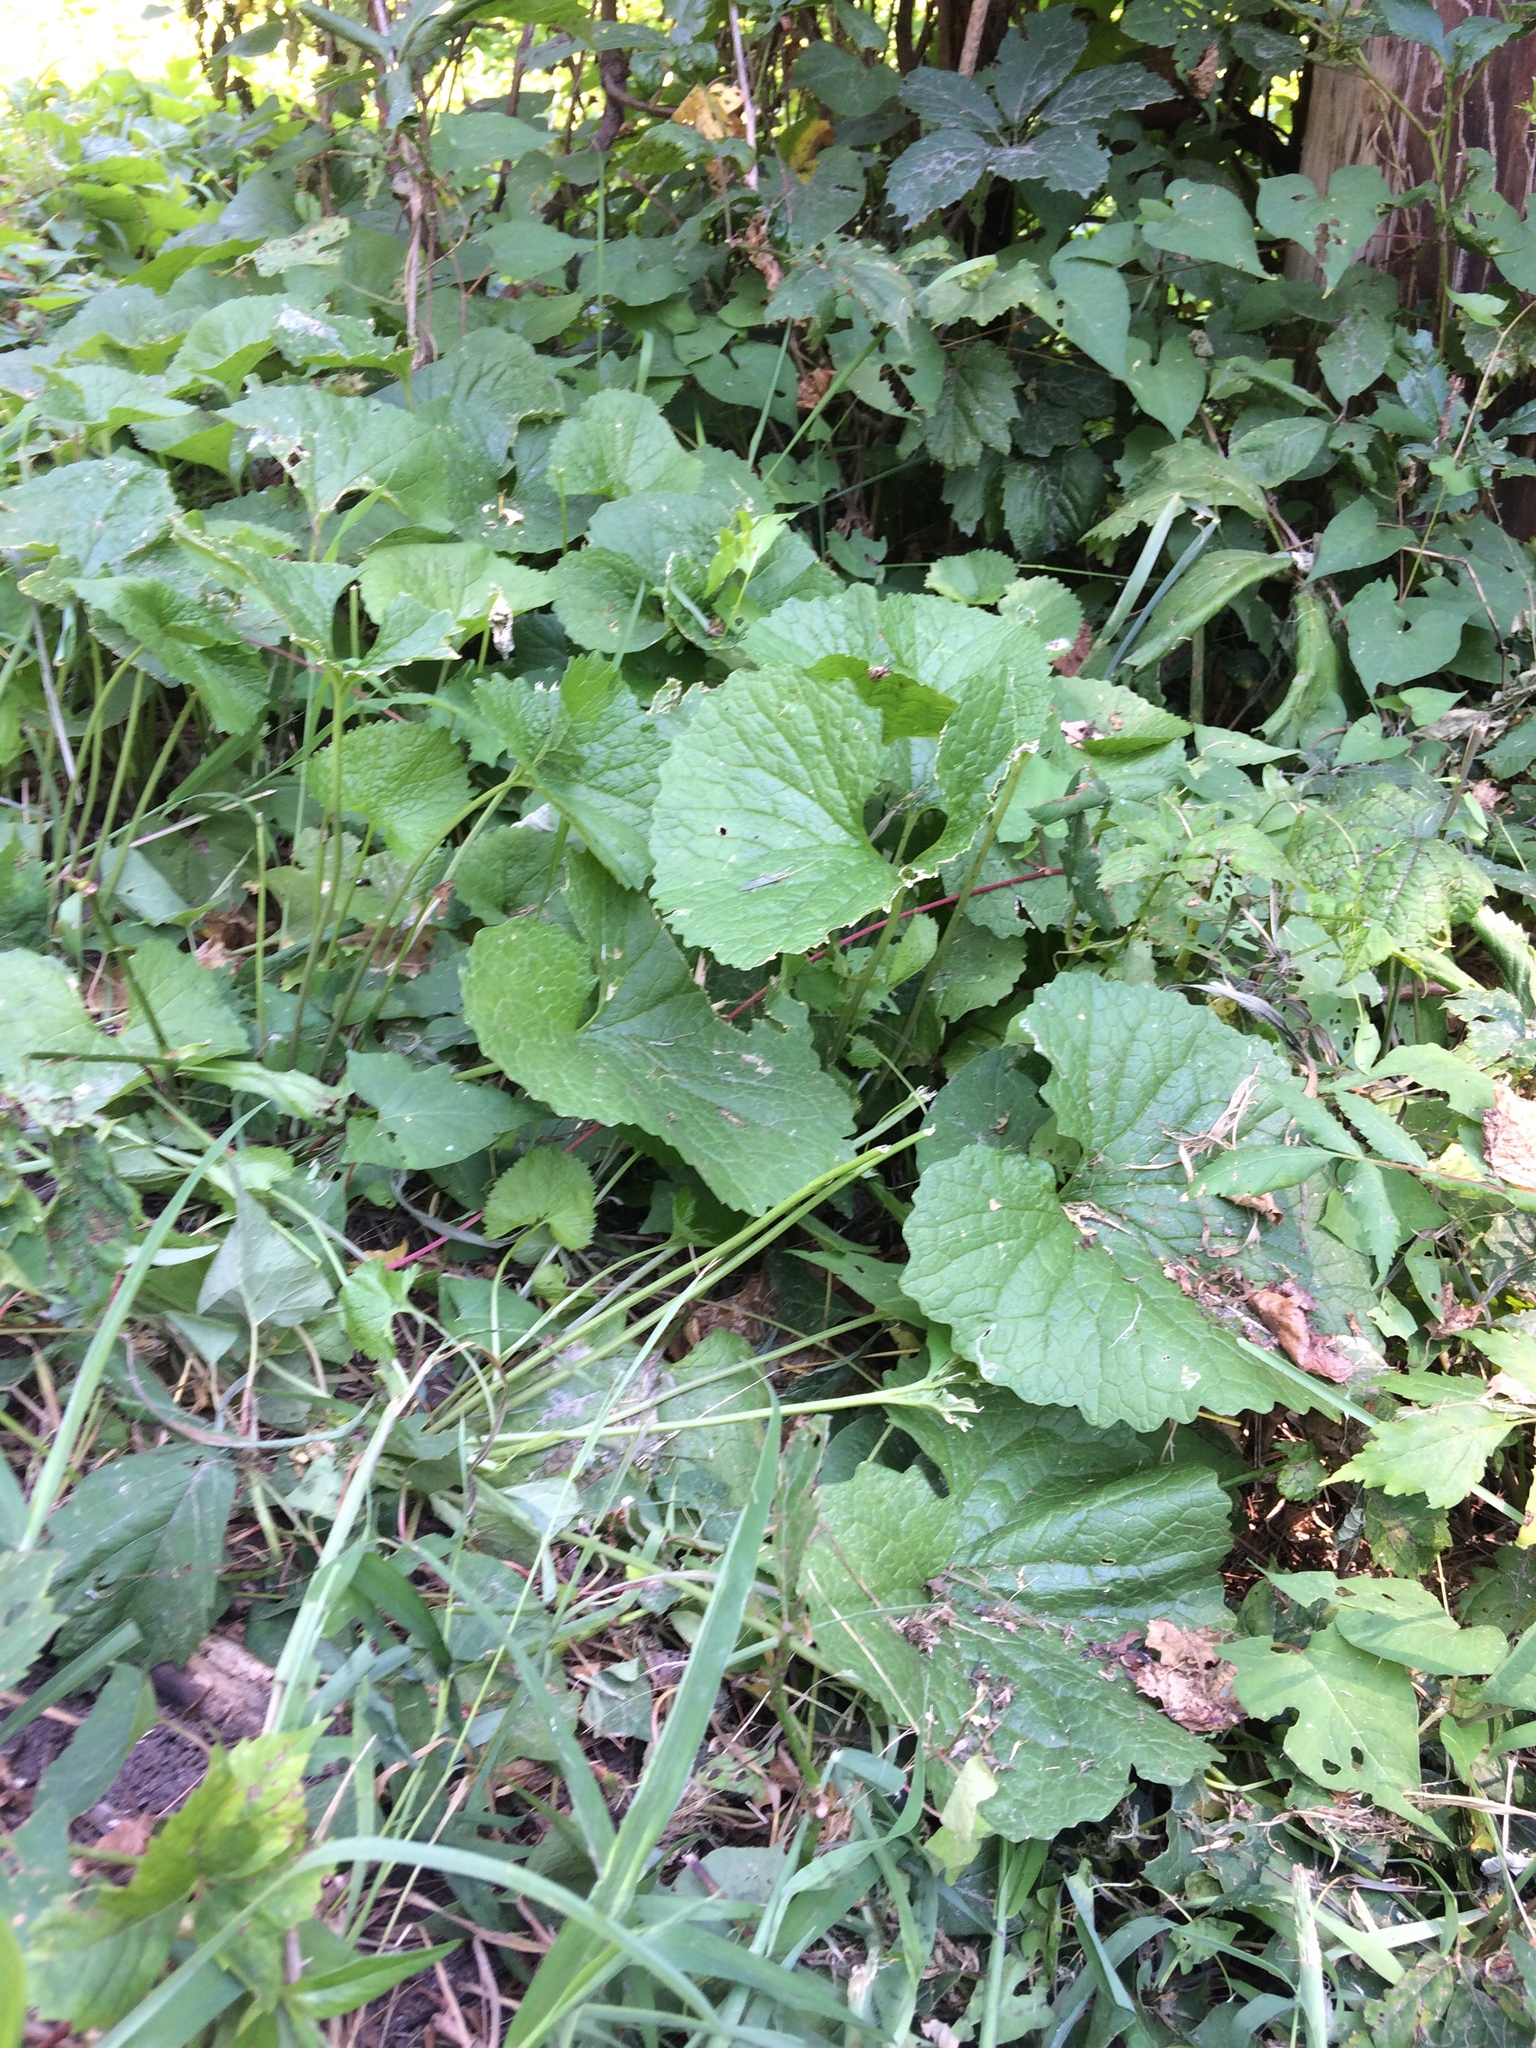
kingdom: Plantae
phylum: Tracheophyta
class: Magnoliopsida
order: Brassicales
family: Brassicaceae
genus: Alliaria
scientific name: Alliaria petiolata
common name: Garlic mustard
